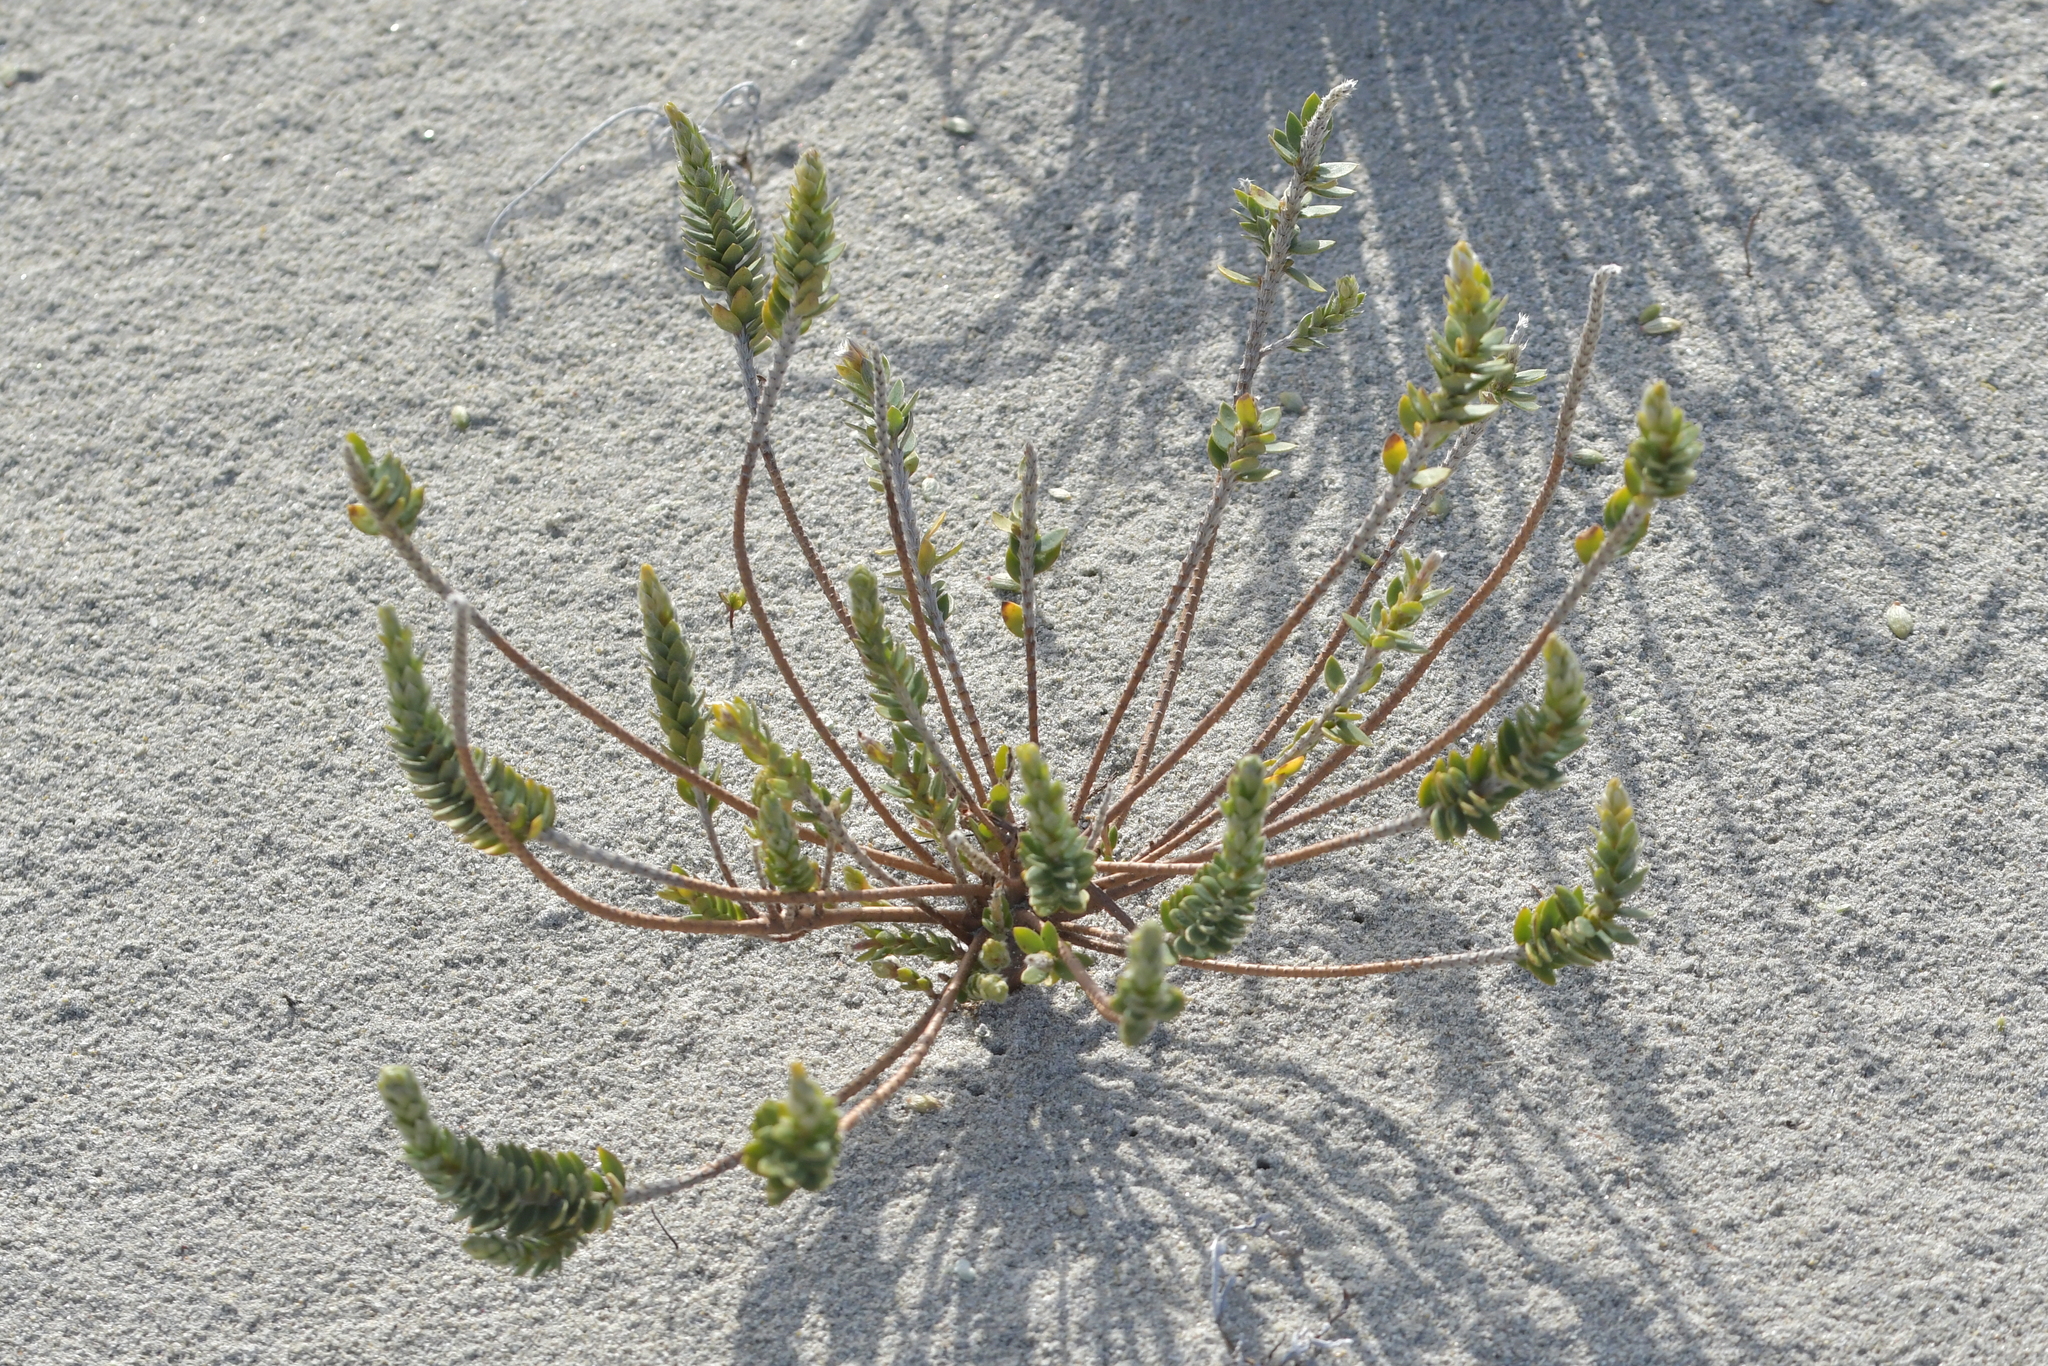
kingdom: Plantae
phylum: Tracheophyta
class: Magnoliopsida
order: Malvales
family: Thymelaeaceae
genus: Pimelea
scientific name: Pimelea villosa
